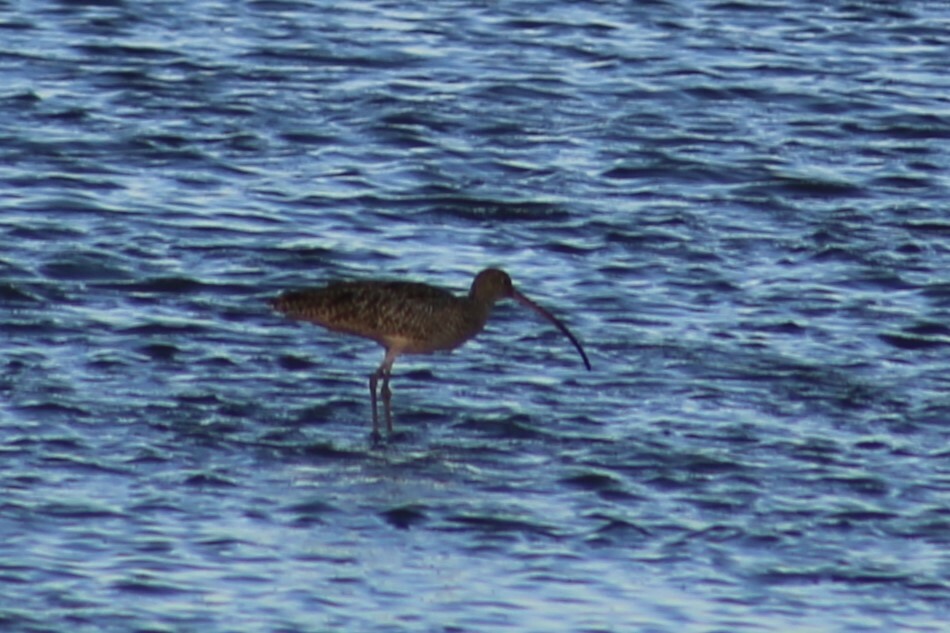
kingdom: Animalia
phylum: Chordata
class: Aves
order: Charadriiformes
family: Scolopacidae
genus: Numenius
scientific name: Numenius madagascariensis
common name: Far eastern curlew
